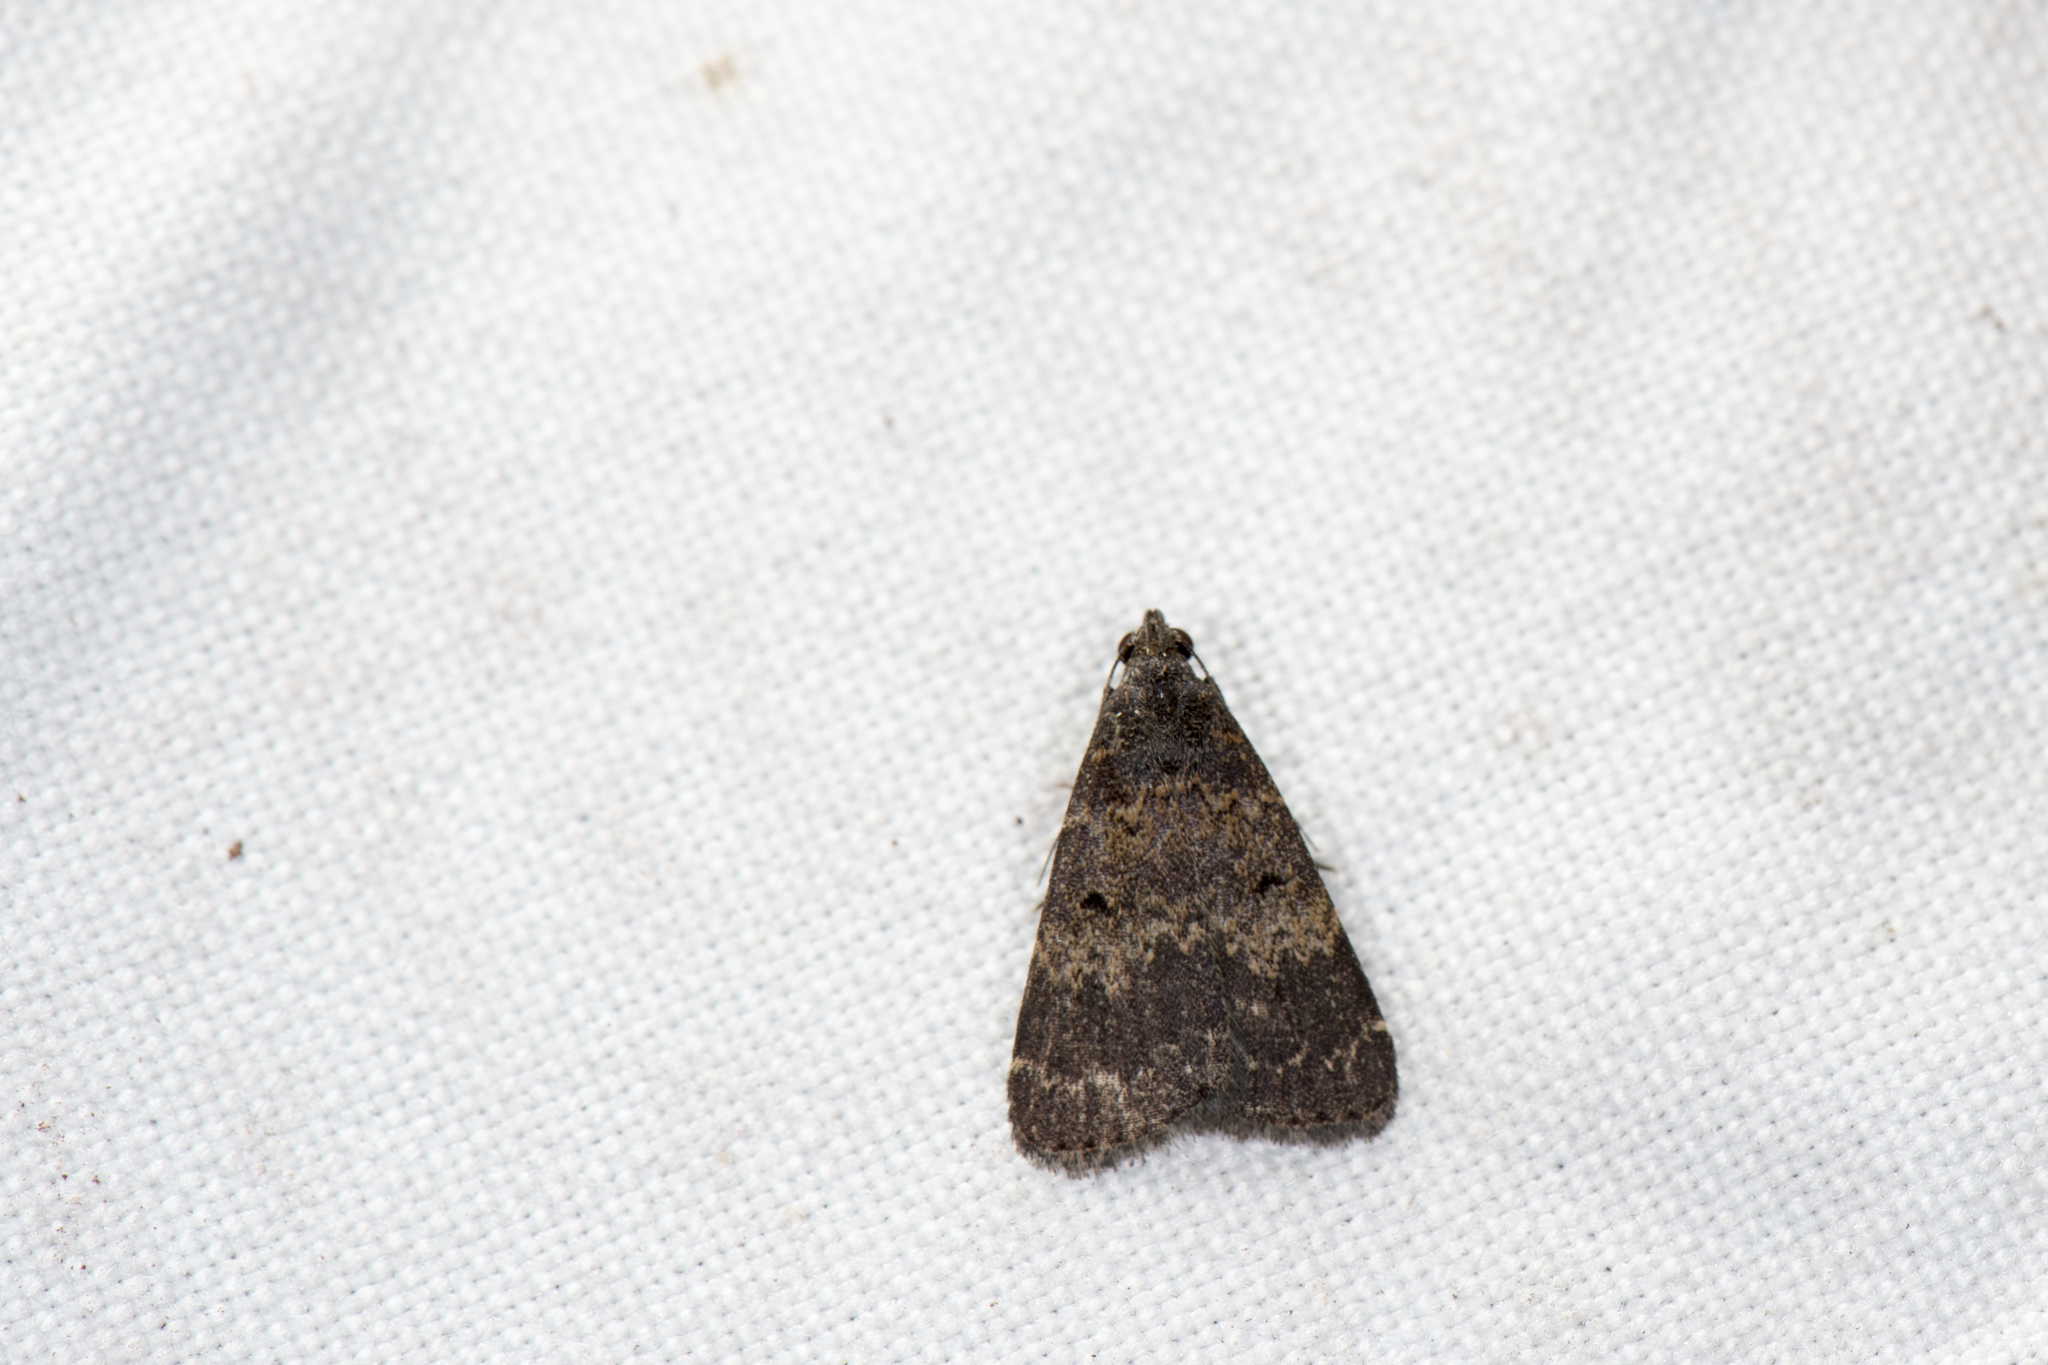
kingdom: Animalia
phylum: Arthropoda
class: Insecta
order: Lepidoptera
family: Erebidae
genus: Hydrillodes
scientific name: Hydrillodes lentalis
